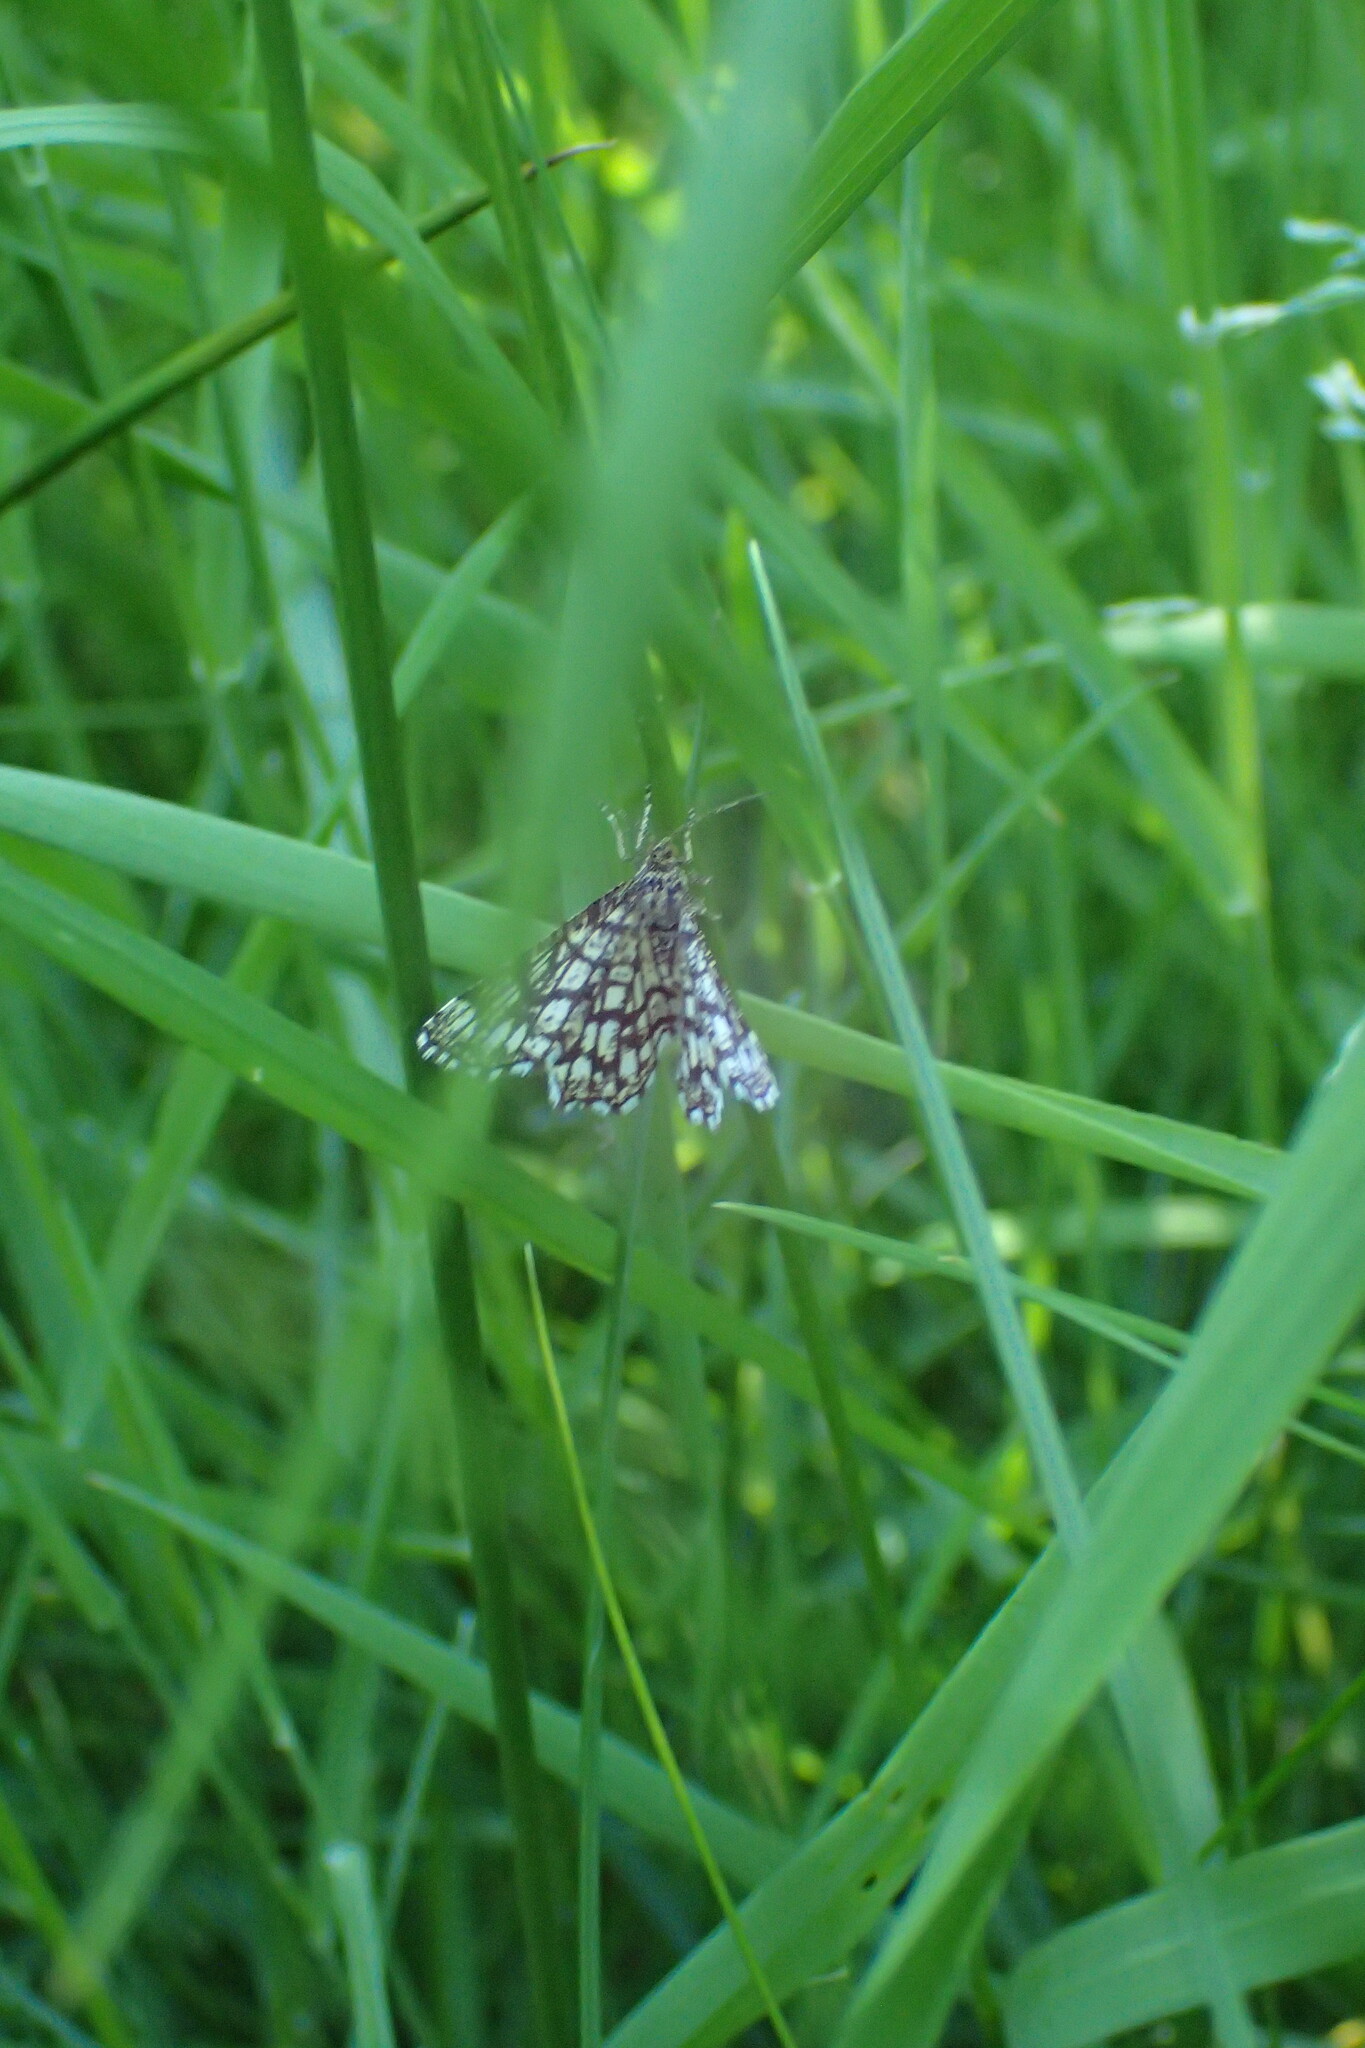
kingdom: Animalia
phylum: Arthropoda
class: Insecta
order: Lepidoptera
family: Geometridae
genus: Chiasmia
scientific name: Chiasmia clathrata
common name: Latticed heath
